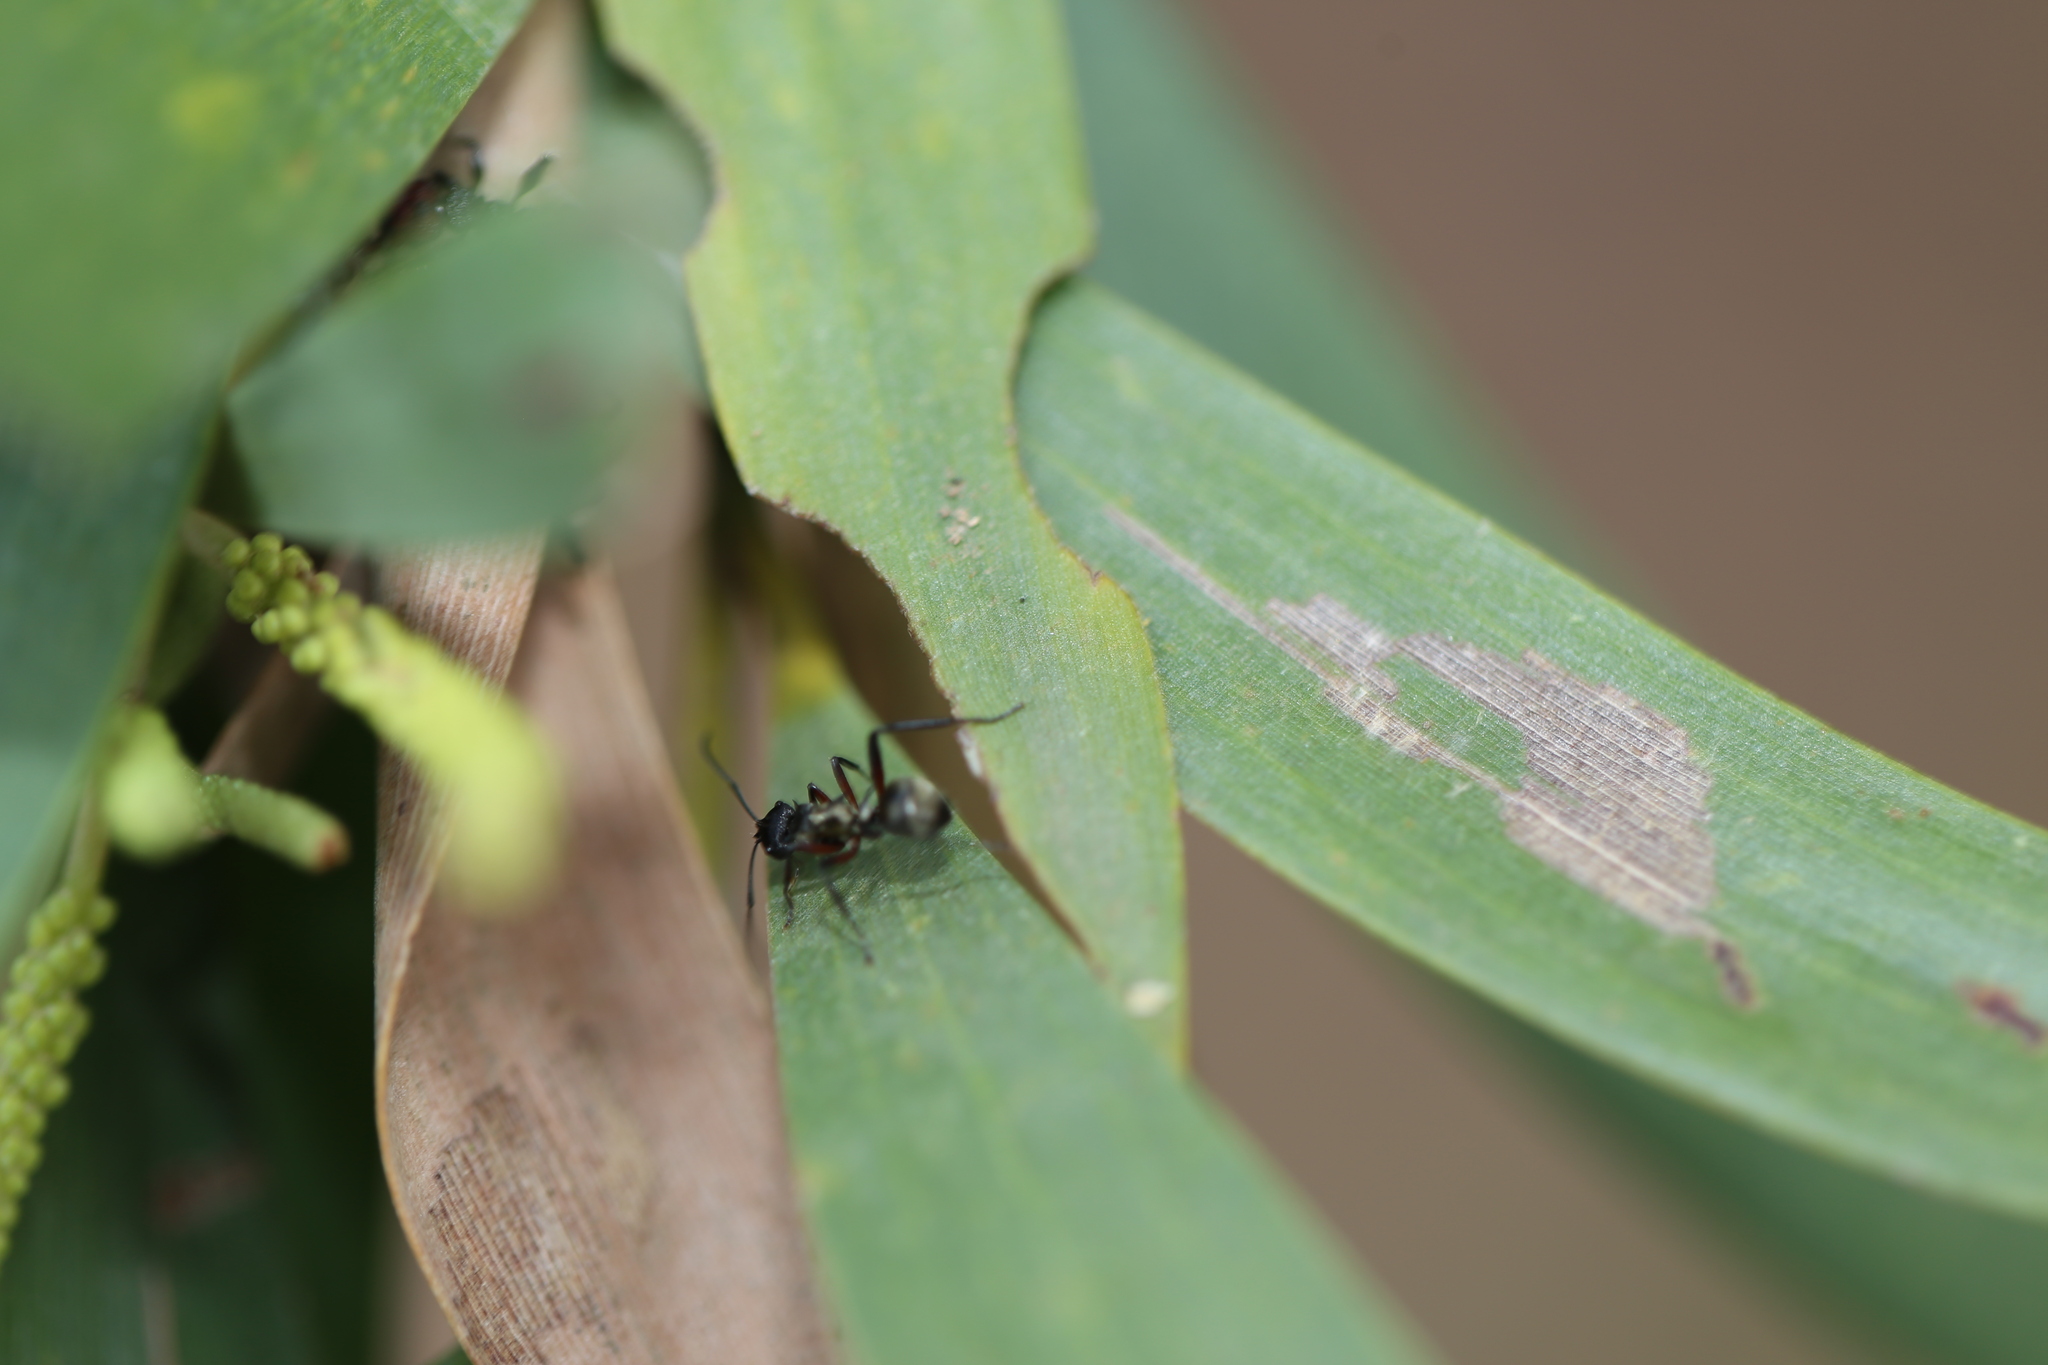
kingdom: Animalia
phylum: Arthropoda
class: Insecta
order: Hymenoptera
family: Formicidae
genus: Polyrhachis
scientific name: Polyrhachis rufifemur
